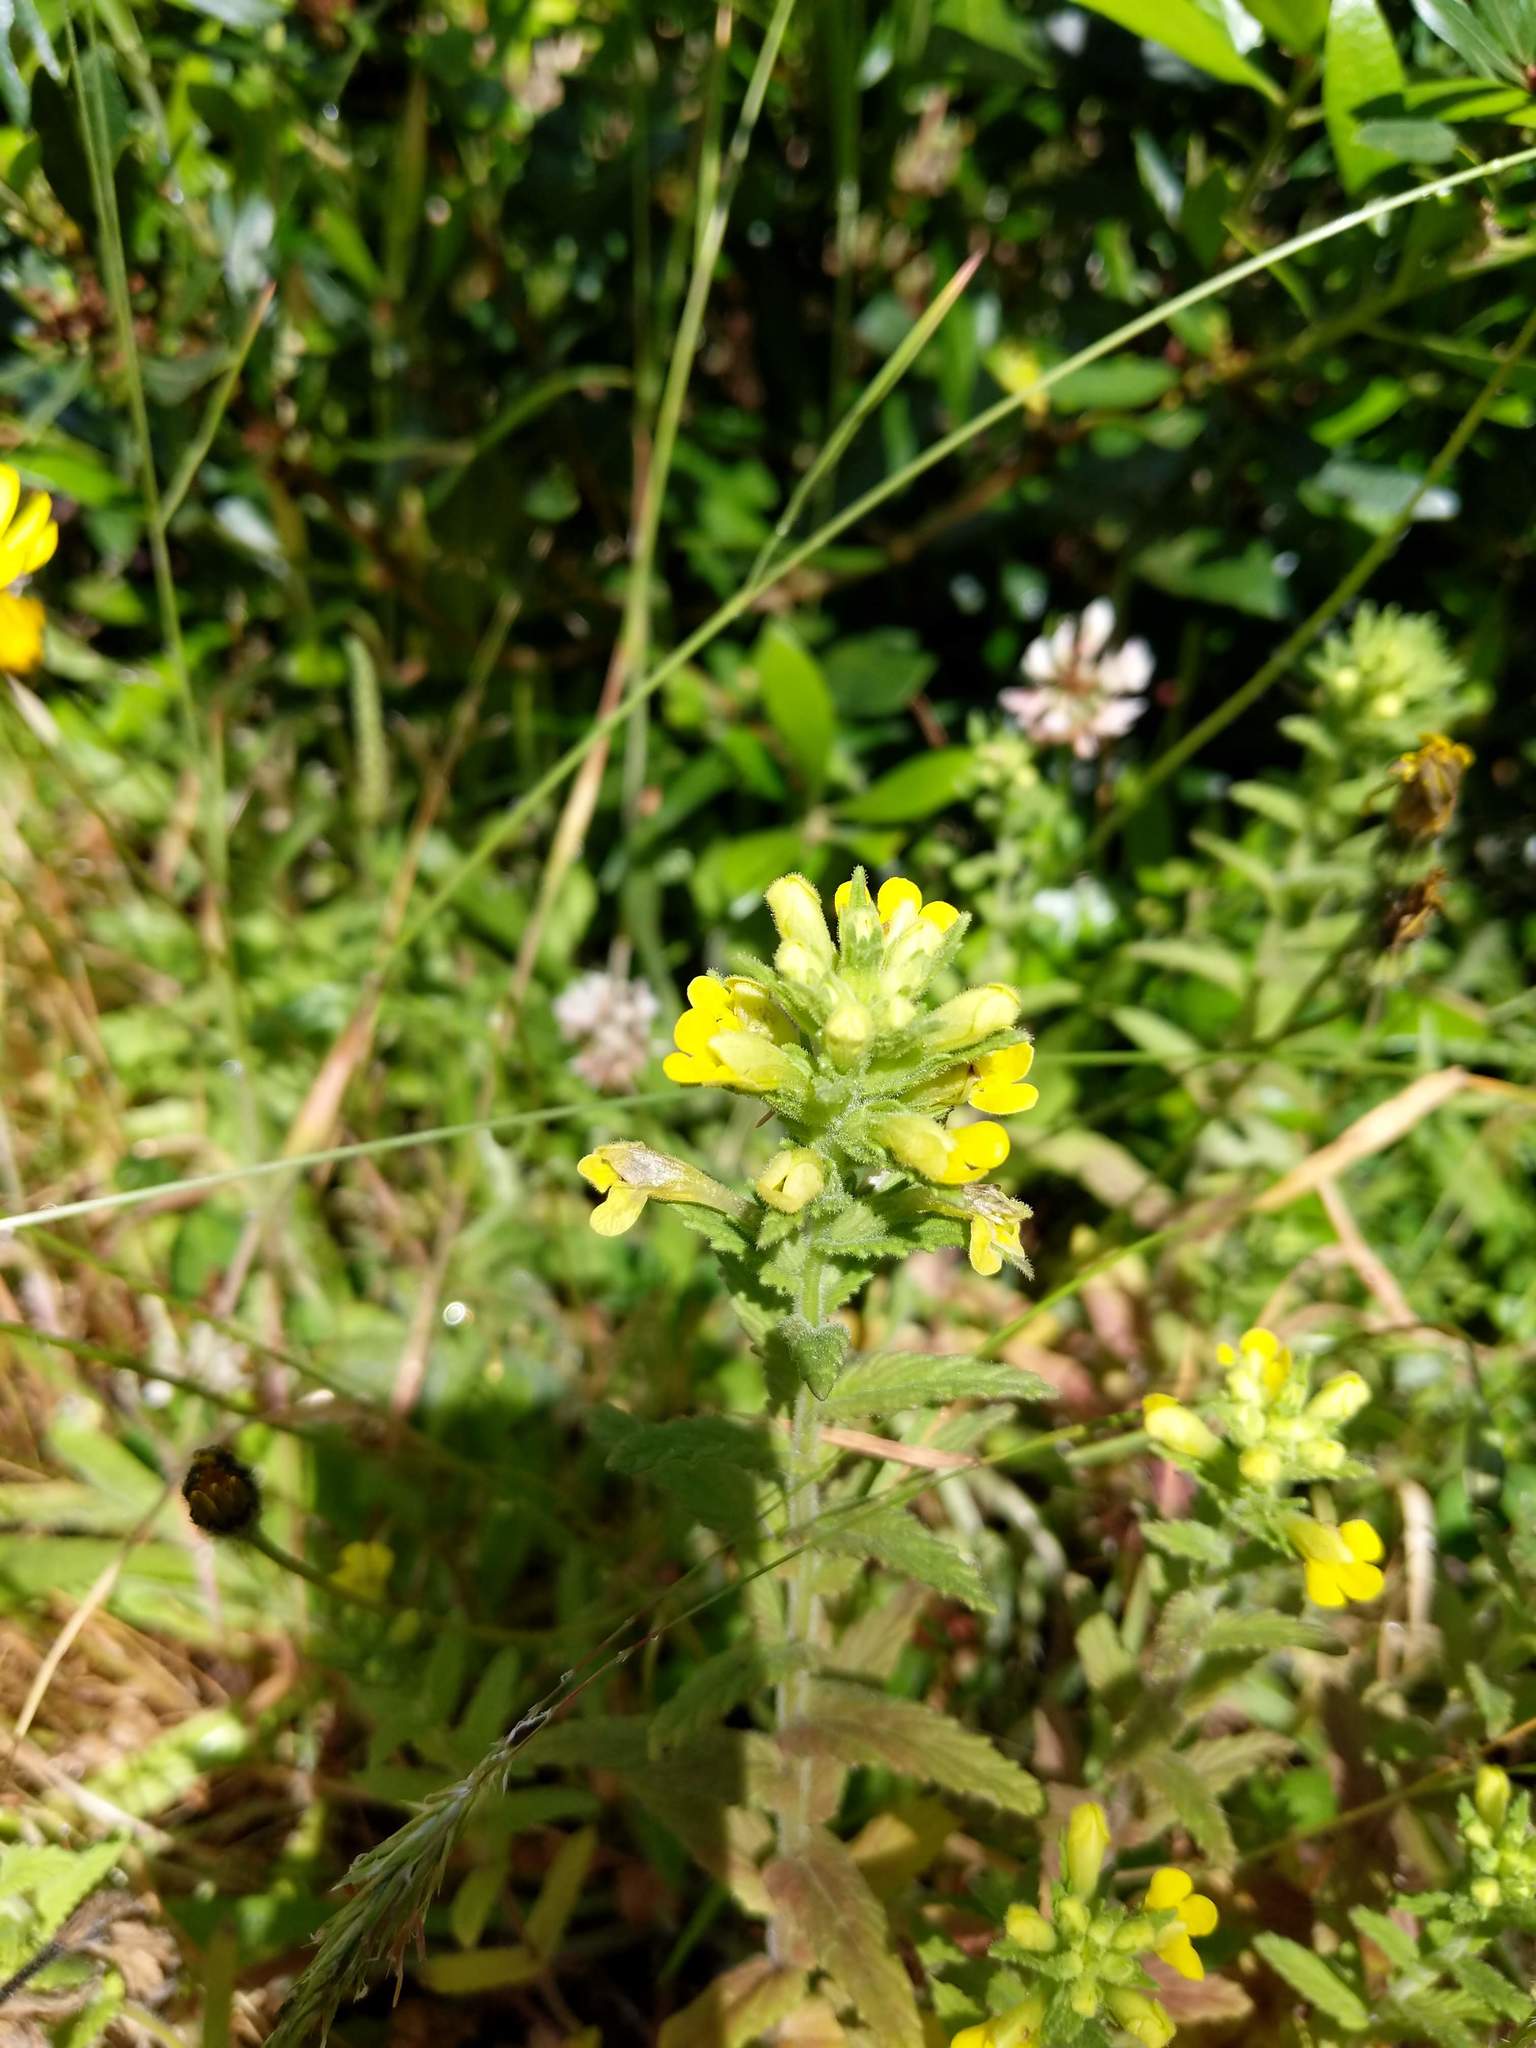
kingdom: Plantae
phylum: Tracheophyta
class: Magnoliopsida
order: Lamiales
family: Orobanchaceae
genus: Bellardia
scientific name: Bellardia viscosa
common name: Sticky parentucellia
